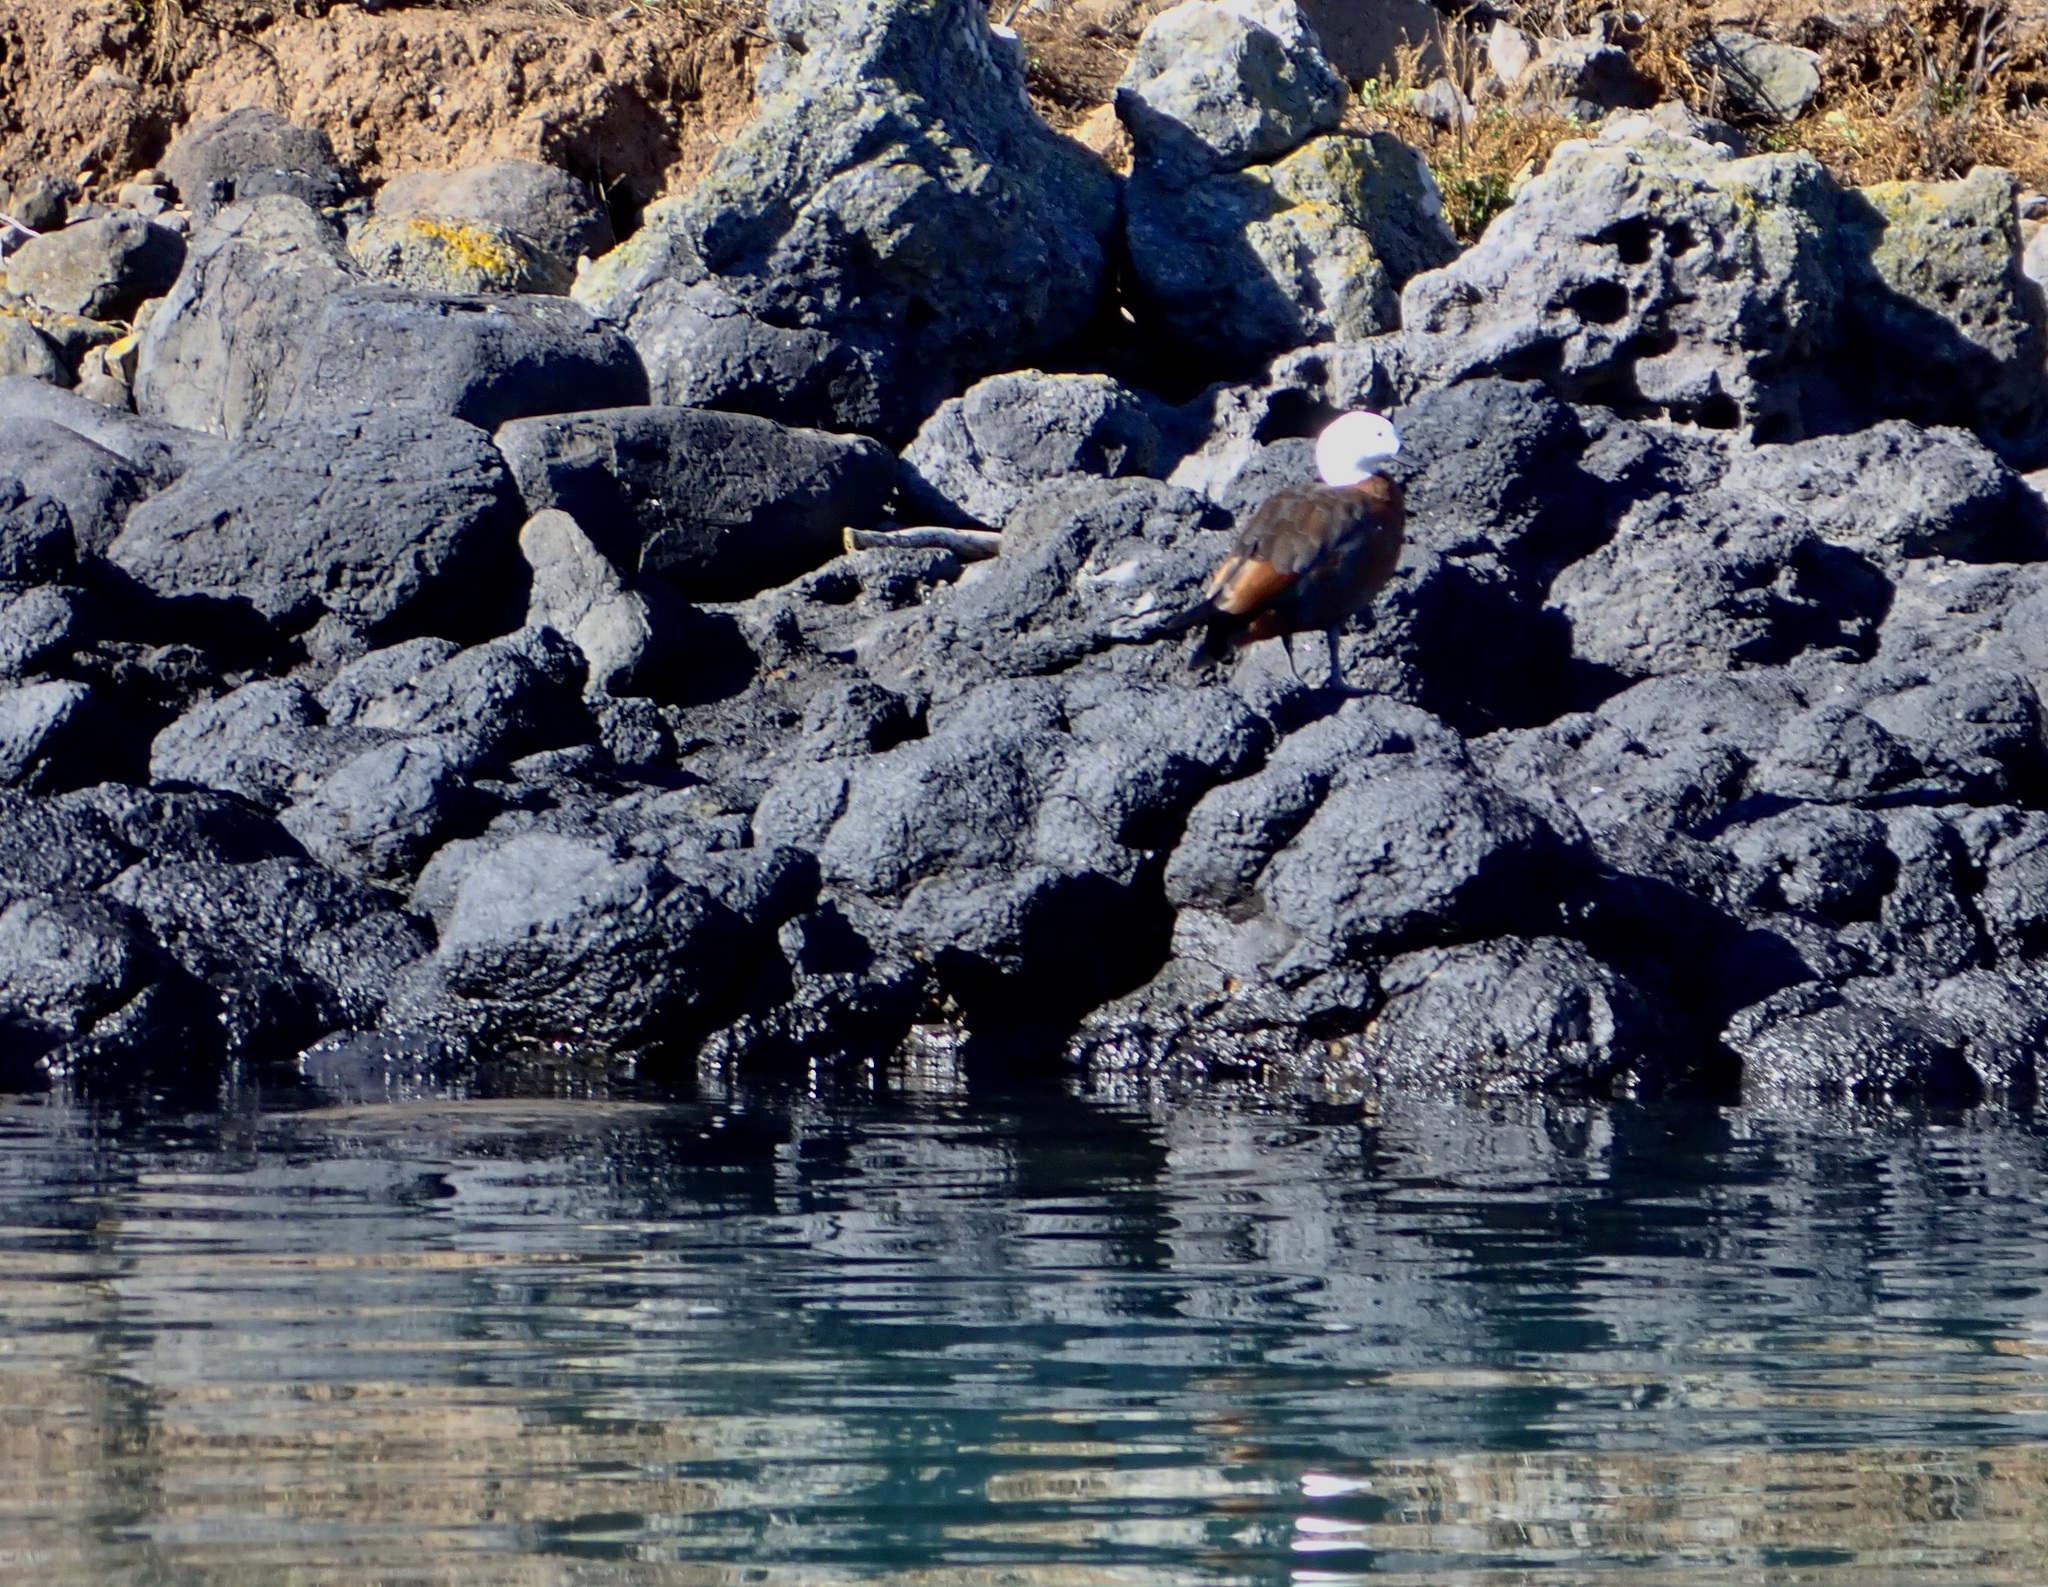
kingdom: Animalia
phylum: Chordata
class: Aves
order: Anseriformes
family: Anatidae
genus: Tadorna
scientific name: Tadorna variegata
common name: Paradise shelduck
